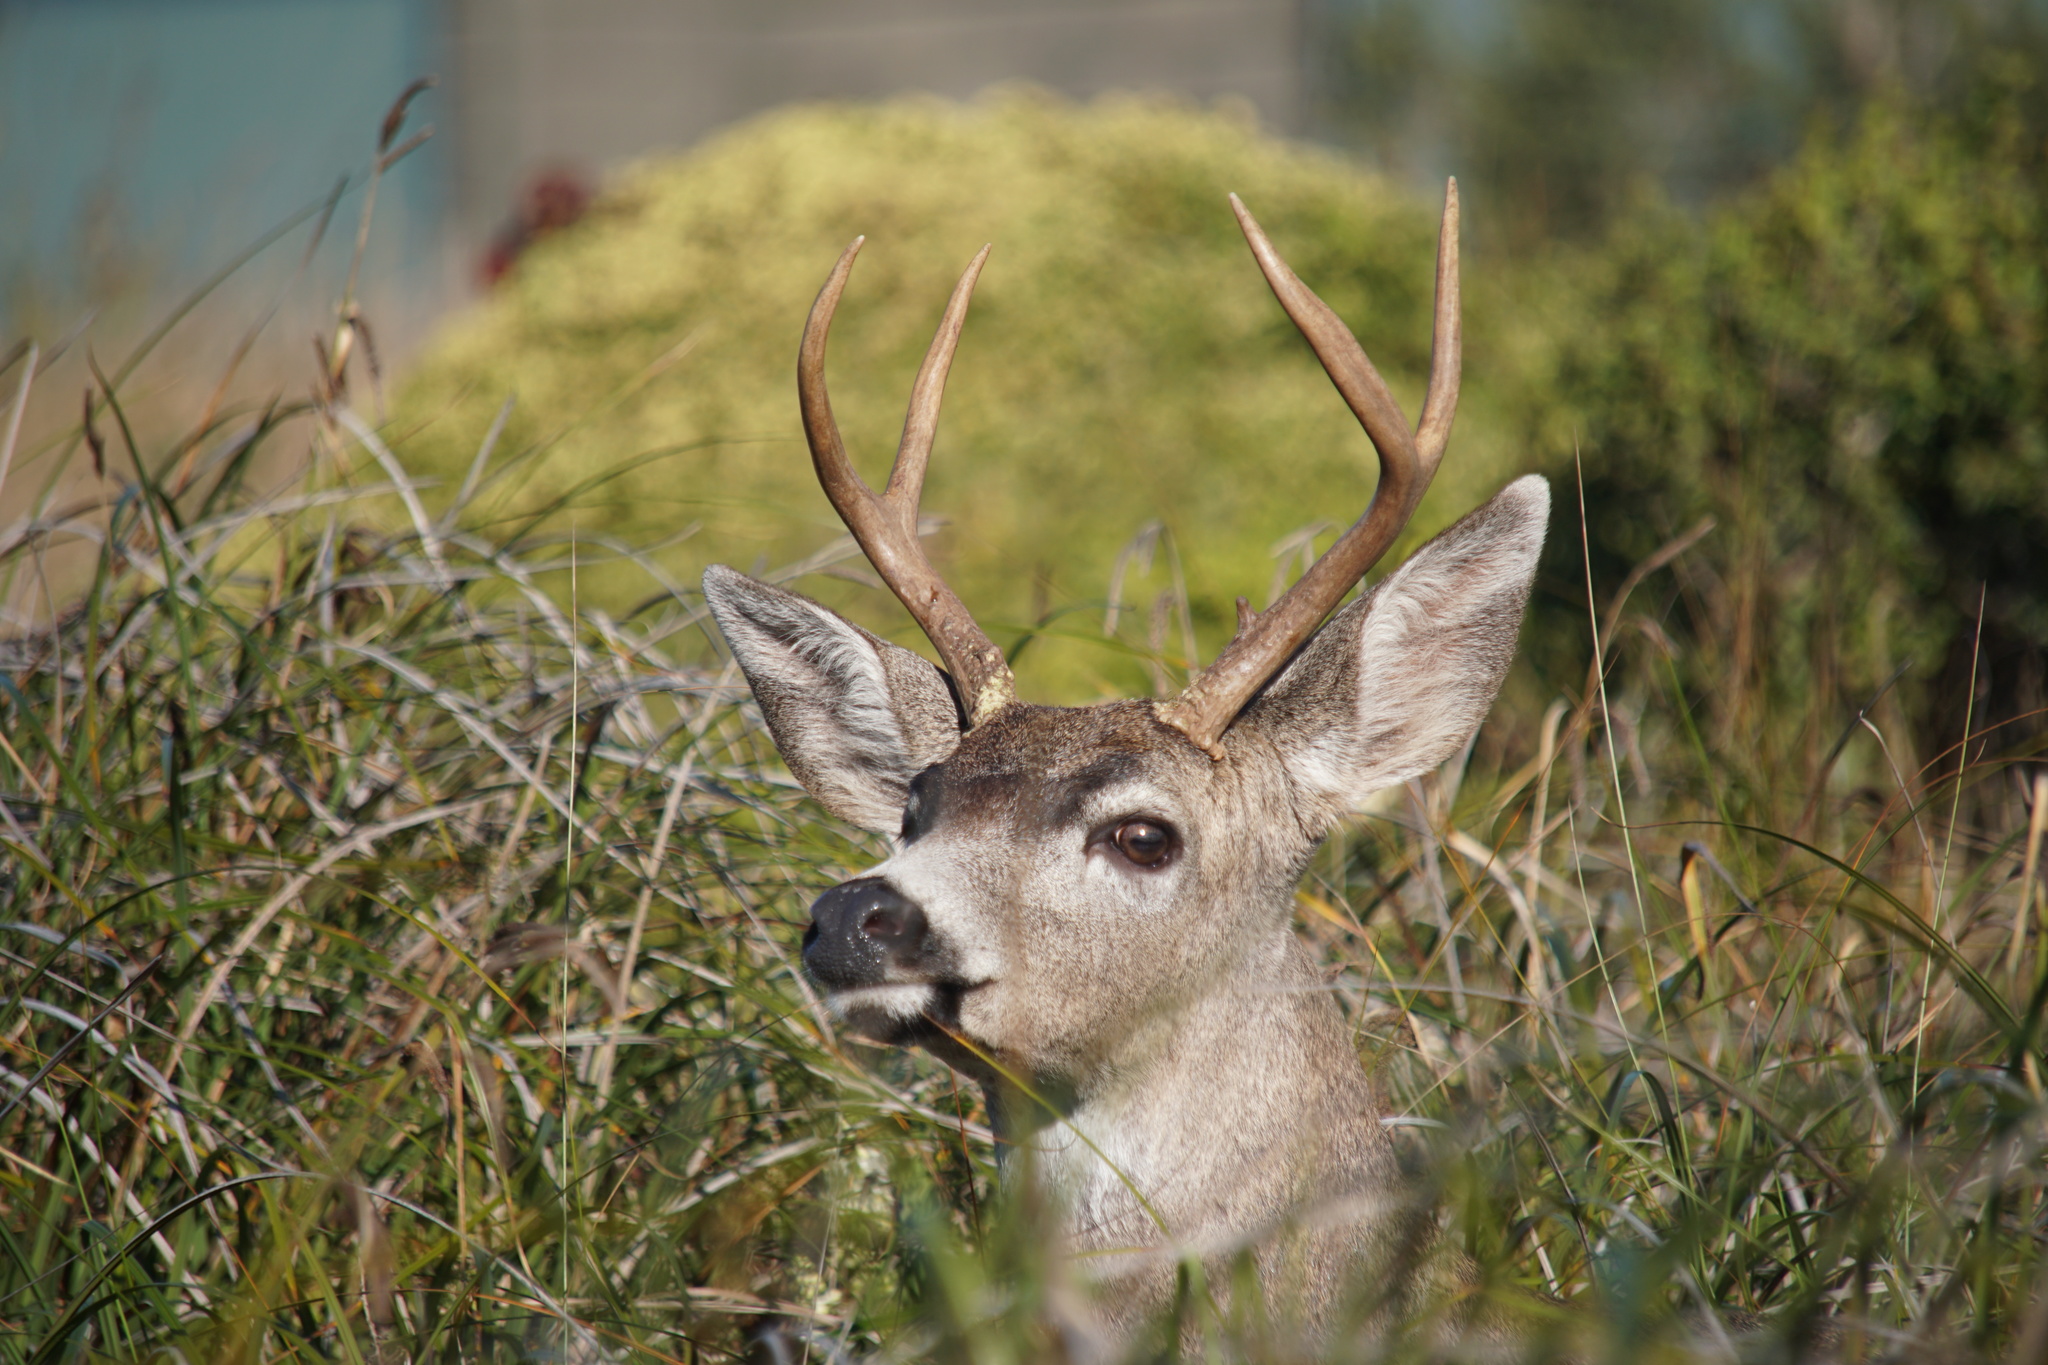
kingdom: Animalia
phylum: Chordata
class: Mammalia
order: Artiodactyla
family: Cervidae
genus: Odocoileus
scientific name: Odocoileus hemionus
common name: Mule deer
